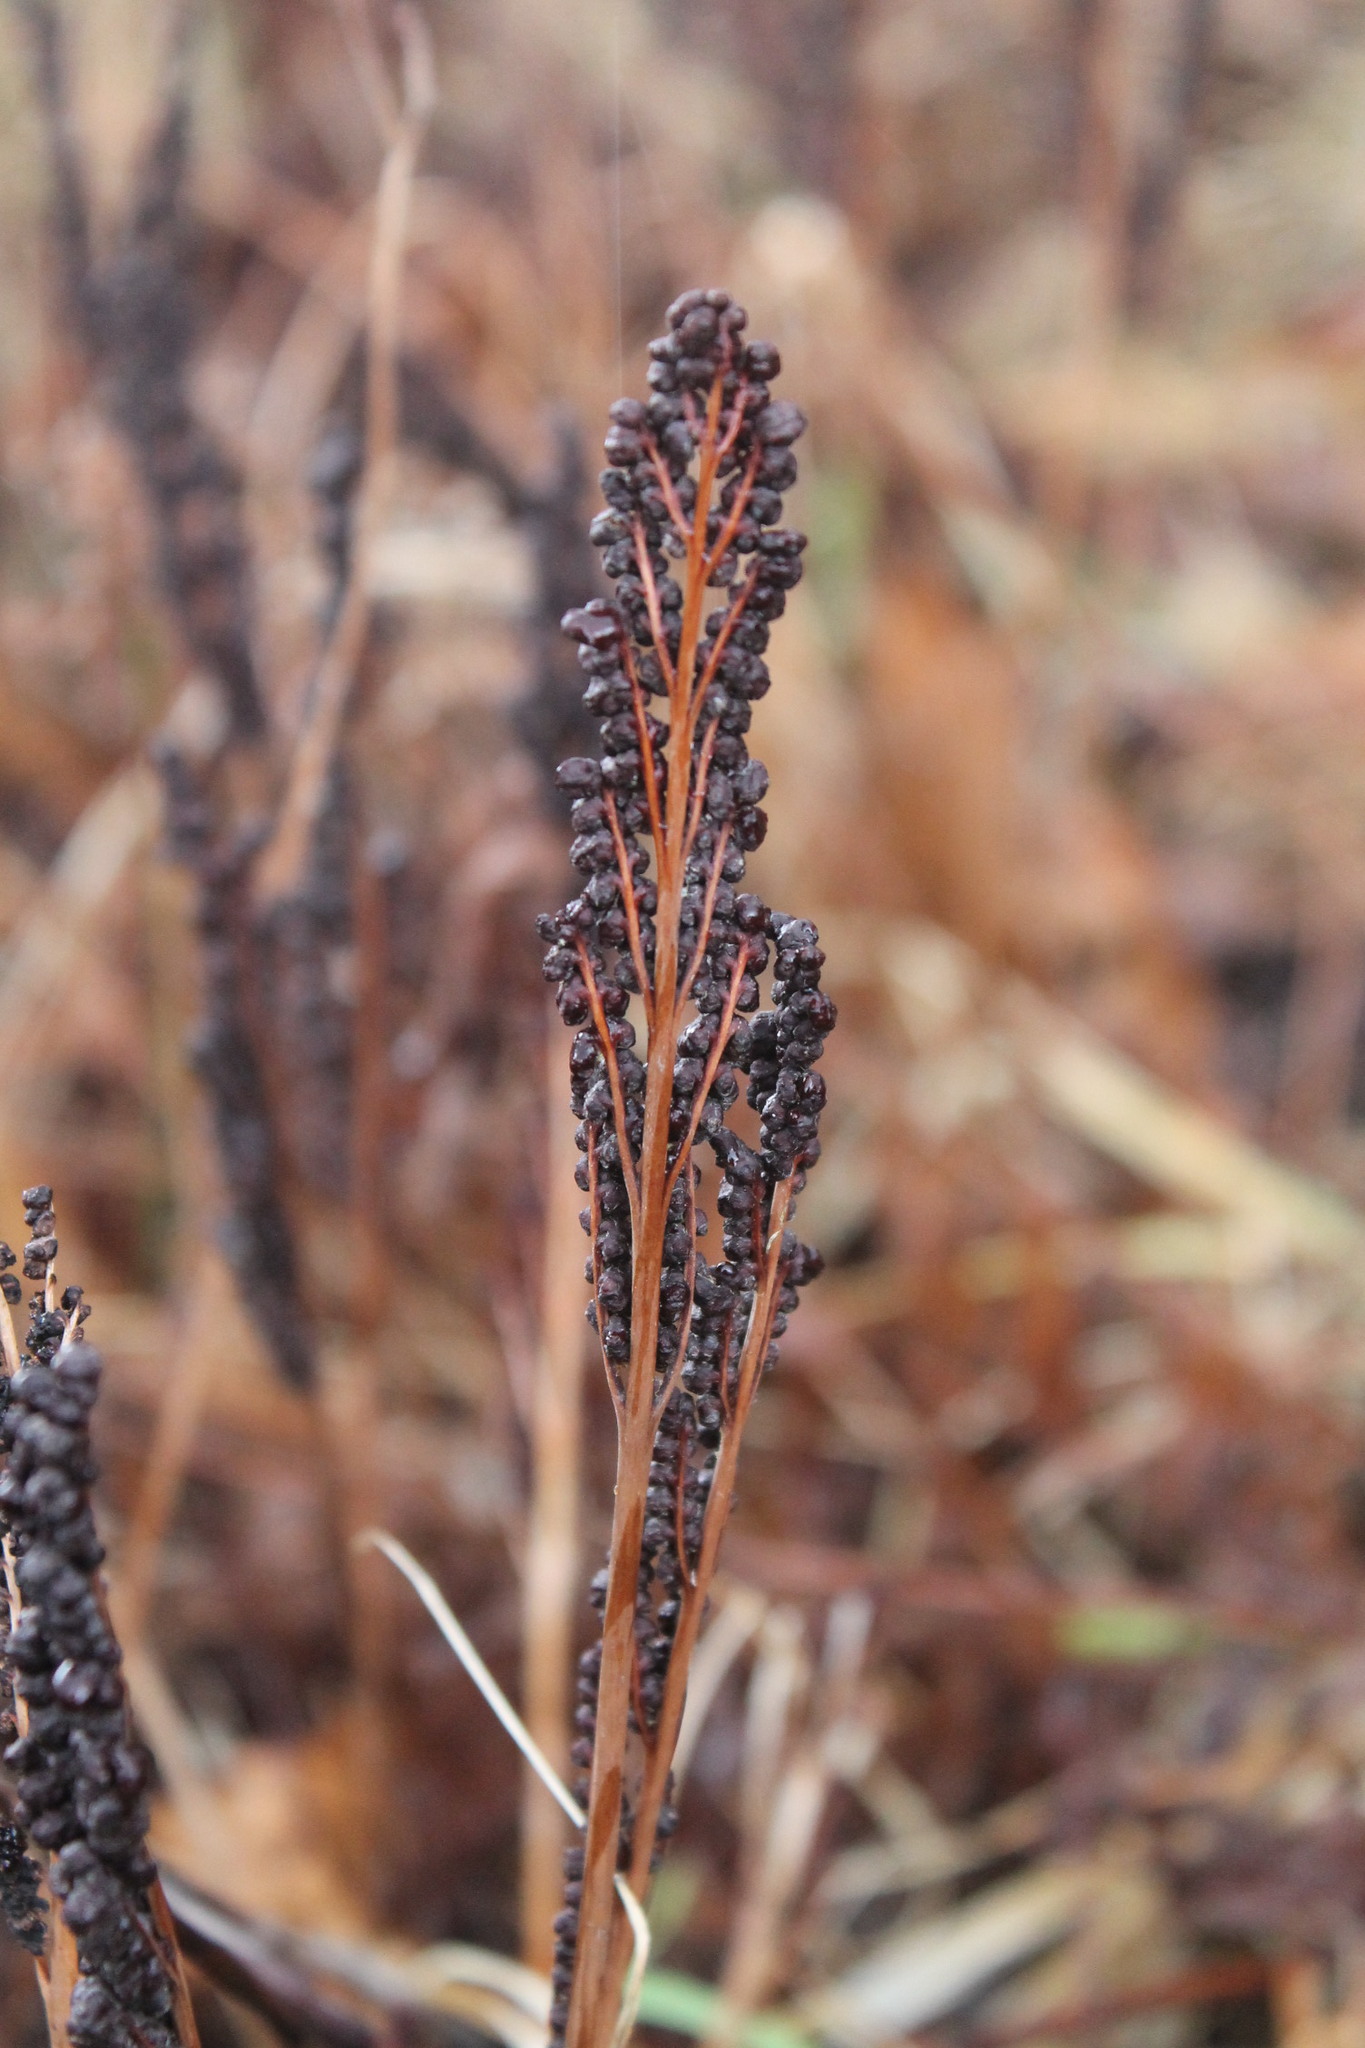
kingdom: Plantae
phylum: Tracheophyta
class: Polypodiopsida
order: Polypodiales
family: Onocleaceae
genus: Onoclea
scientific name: Onoclea sensibilis
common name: Sensitive fern
